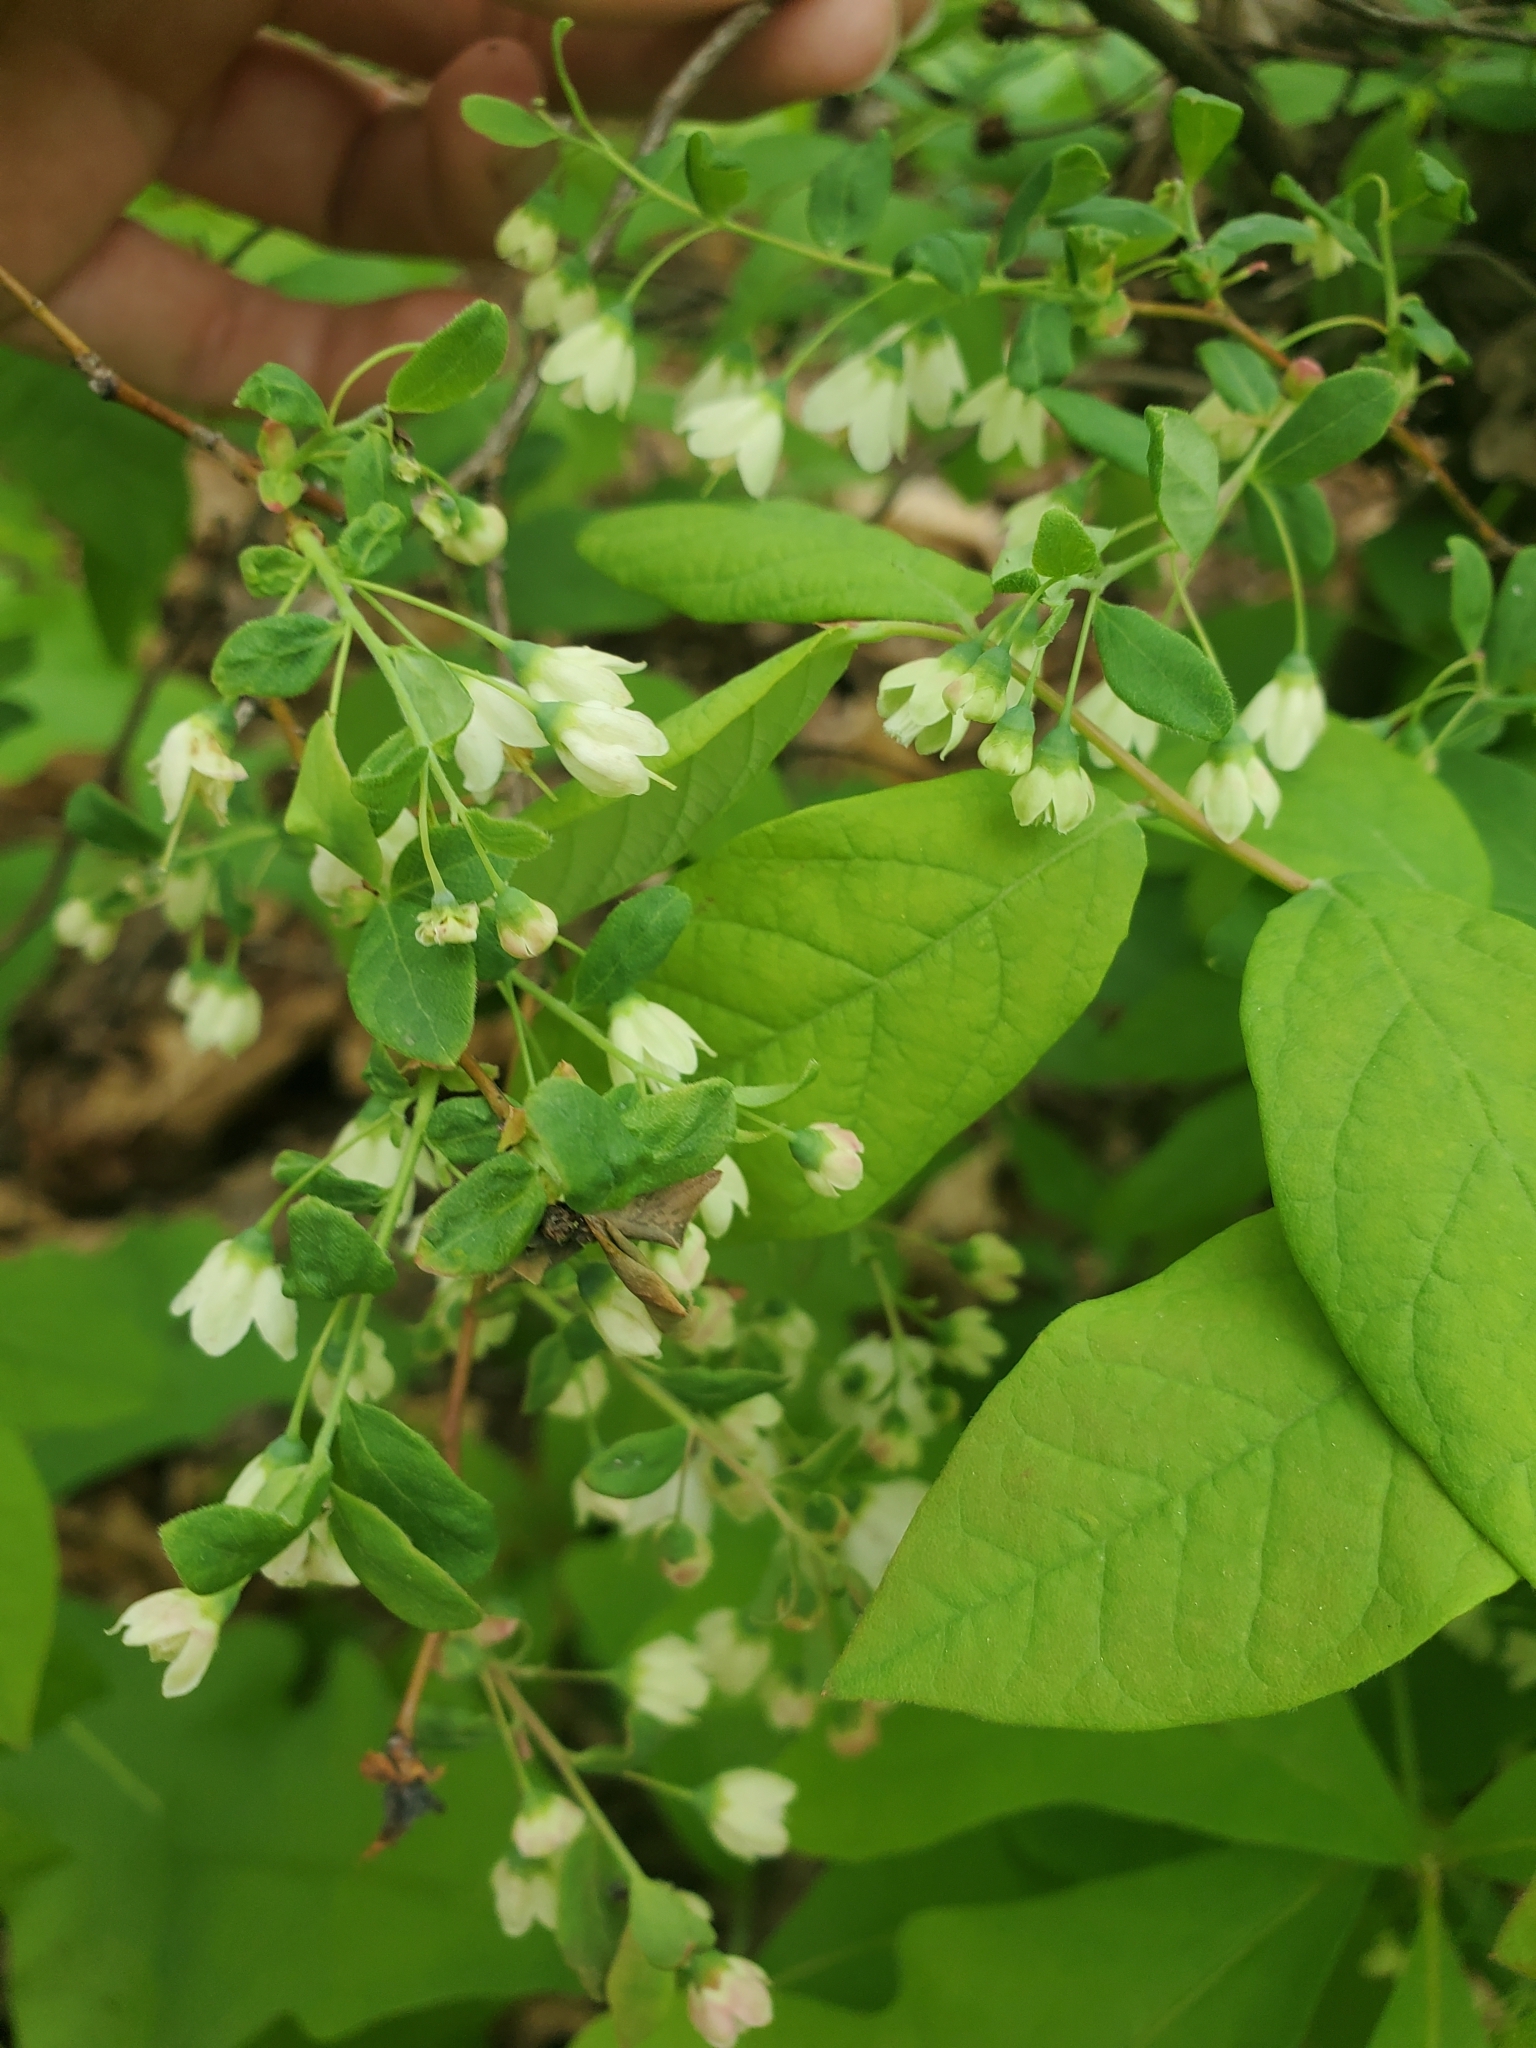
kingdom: Plantae
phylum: Tracheophyta
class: Magnoliopsida
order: Ericales
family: Ericaceae
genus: Vaccinium
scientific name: Vaccinium stamineum
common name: Deerberry
